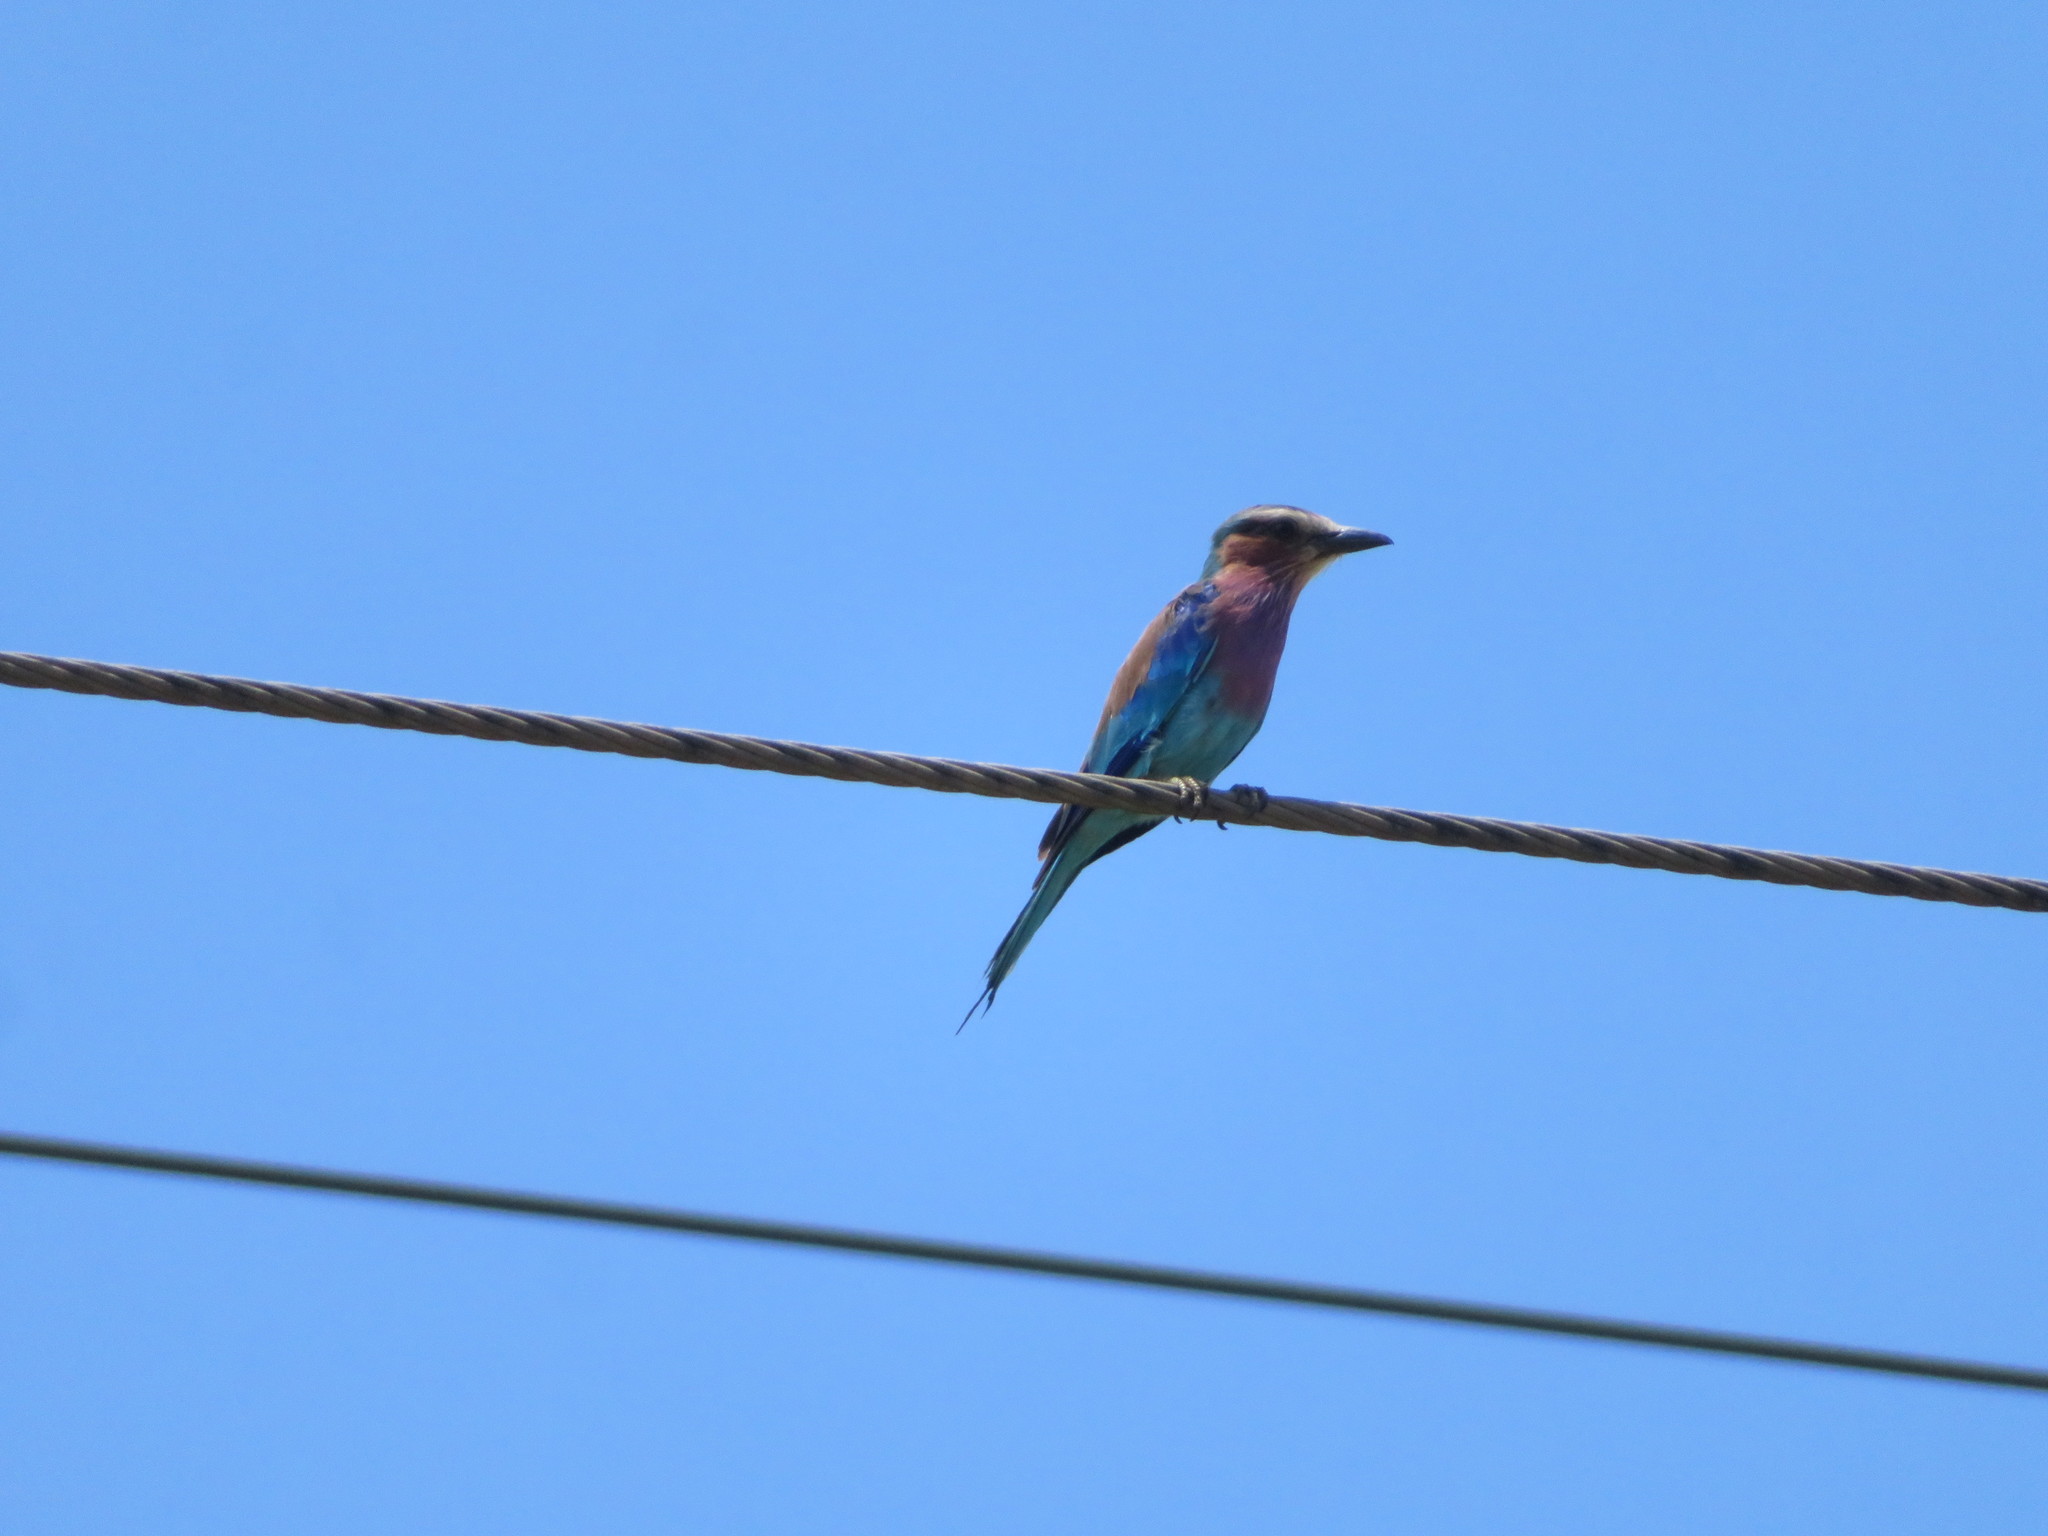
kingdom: Animalia
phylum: Chordata
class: Aves
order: Coraciiformes
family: Coraciidae
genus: Coracias
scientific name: Coracias caudatus
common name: Lilac-breasted roller
